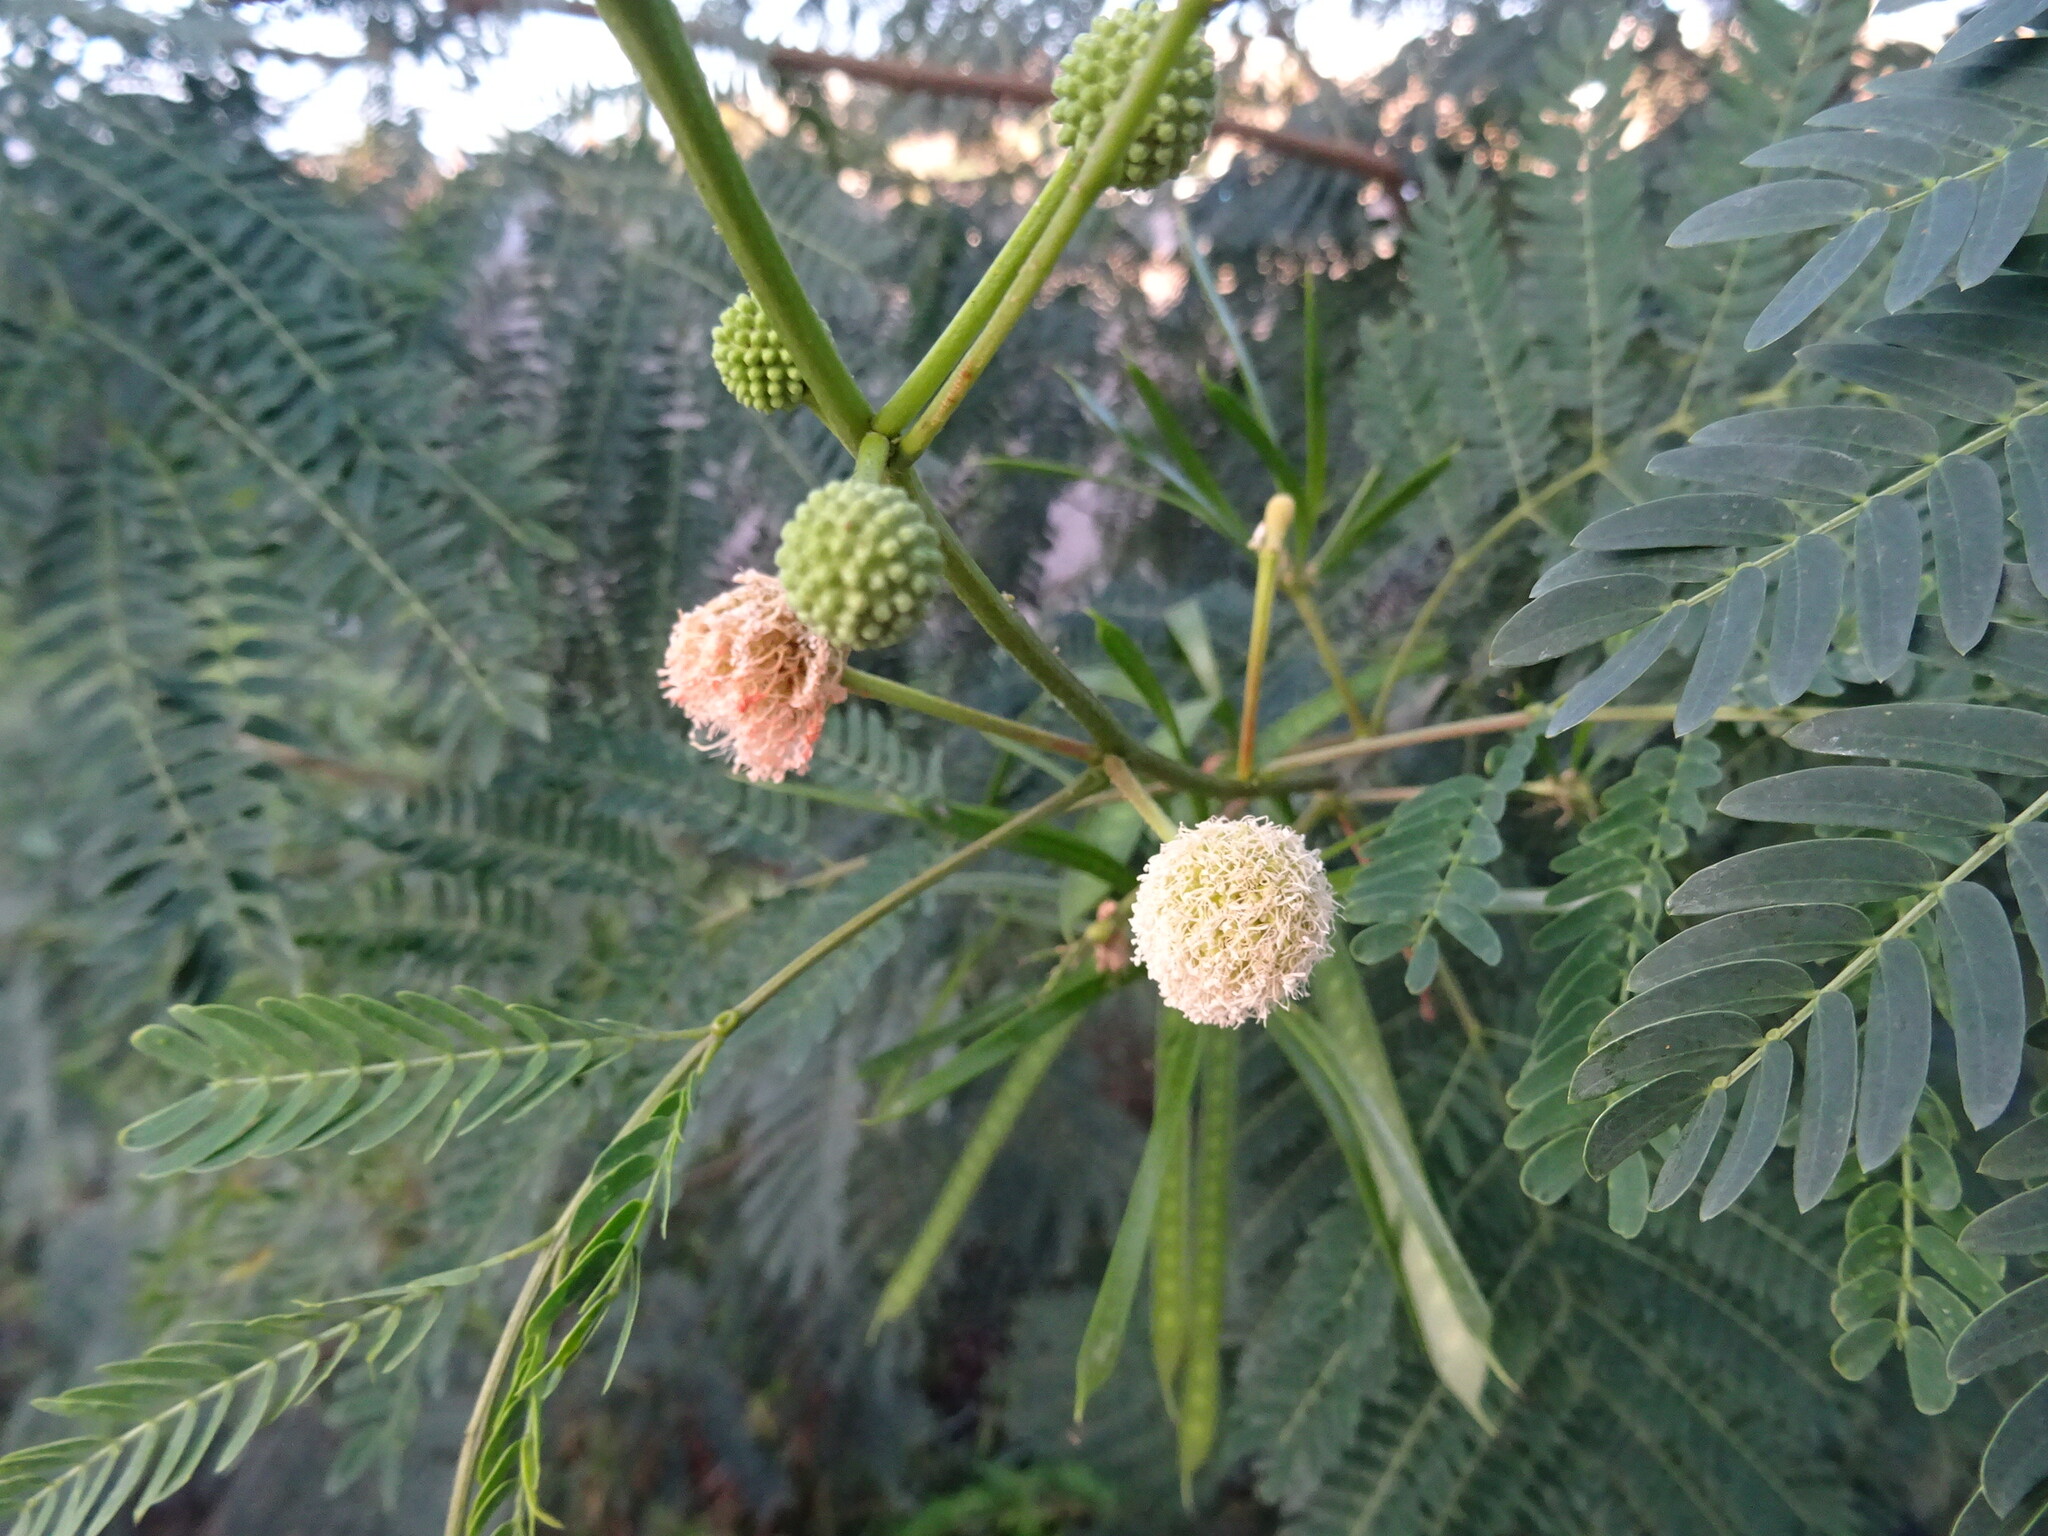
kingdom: Plantae
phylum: Tracheophyta
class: Magnoliopsida
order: Fabales
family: Fabaceae
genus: Leucaena
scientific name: Leucaena leucocephala
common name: White leadtree
